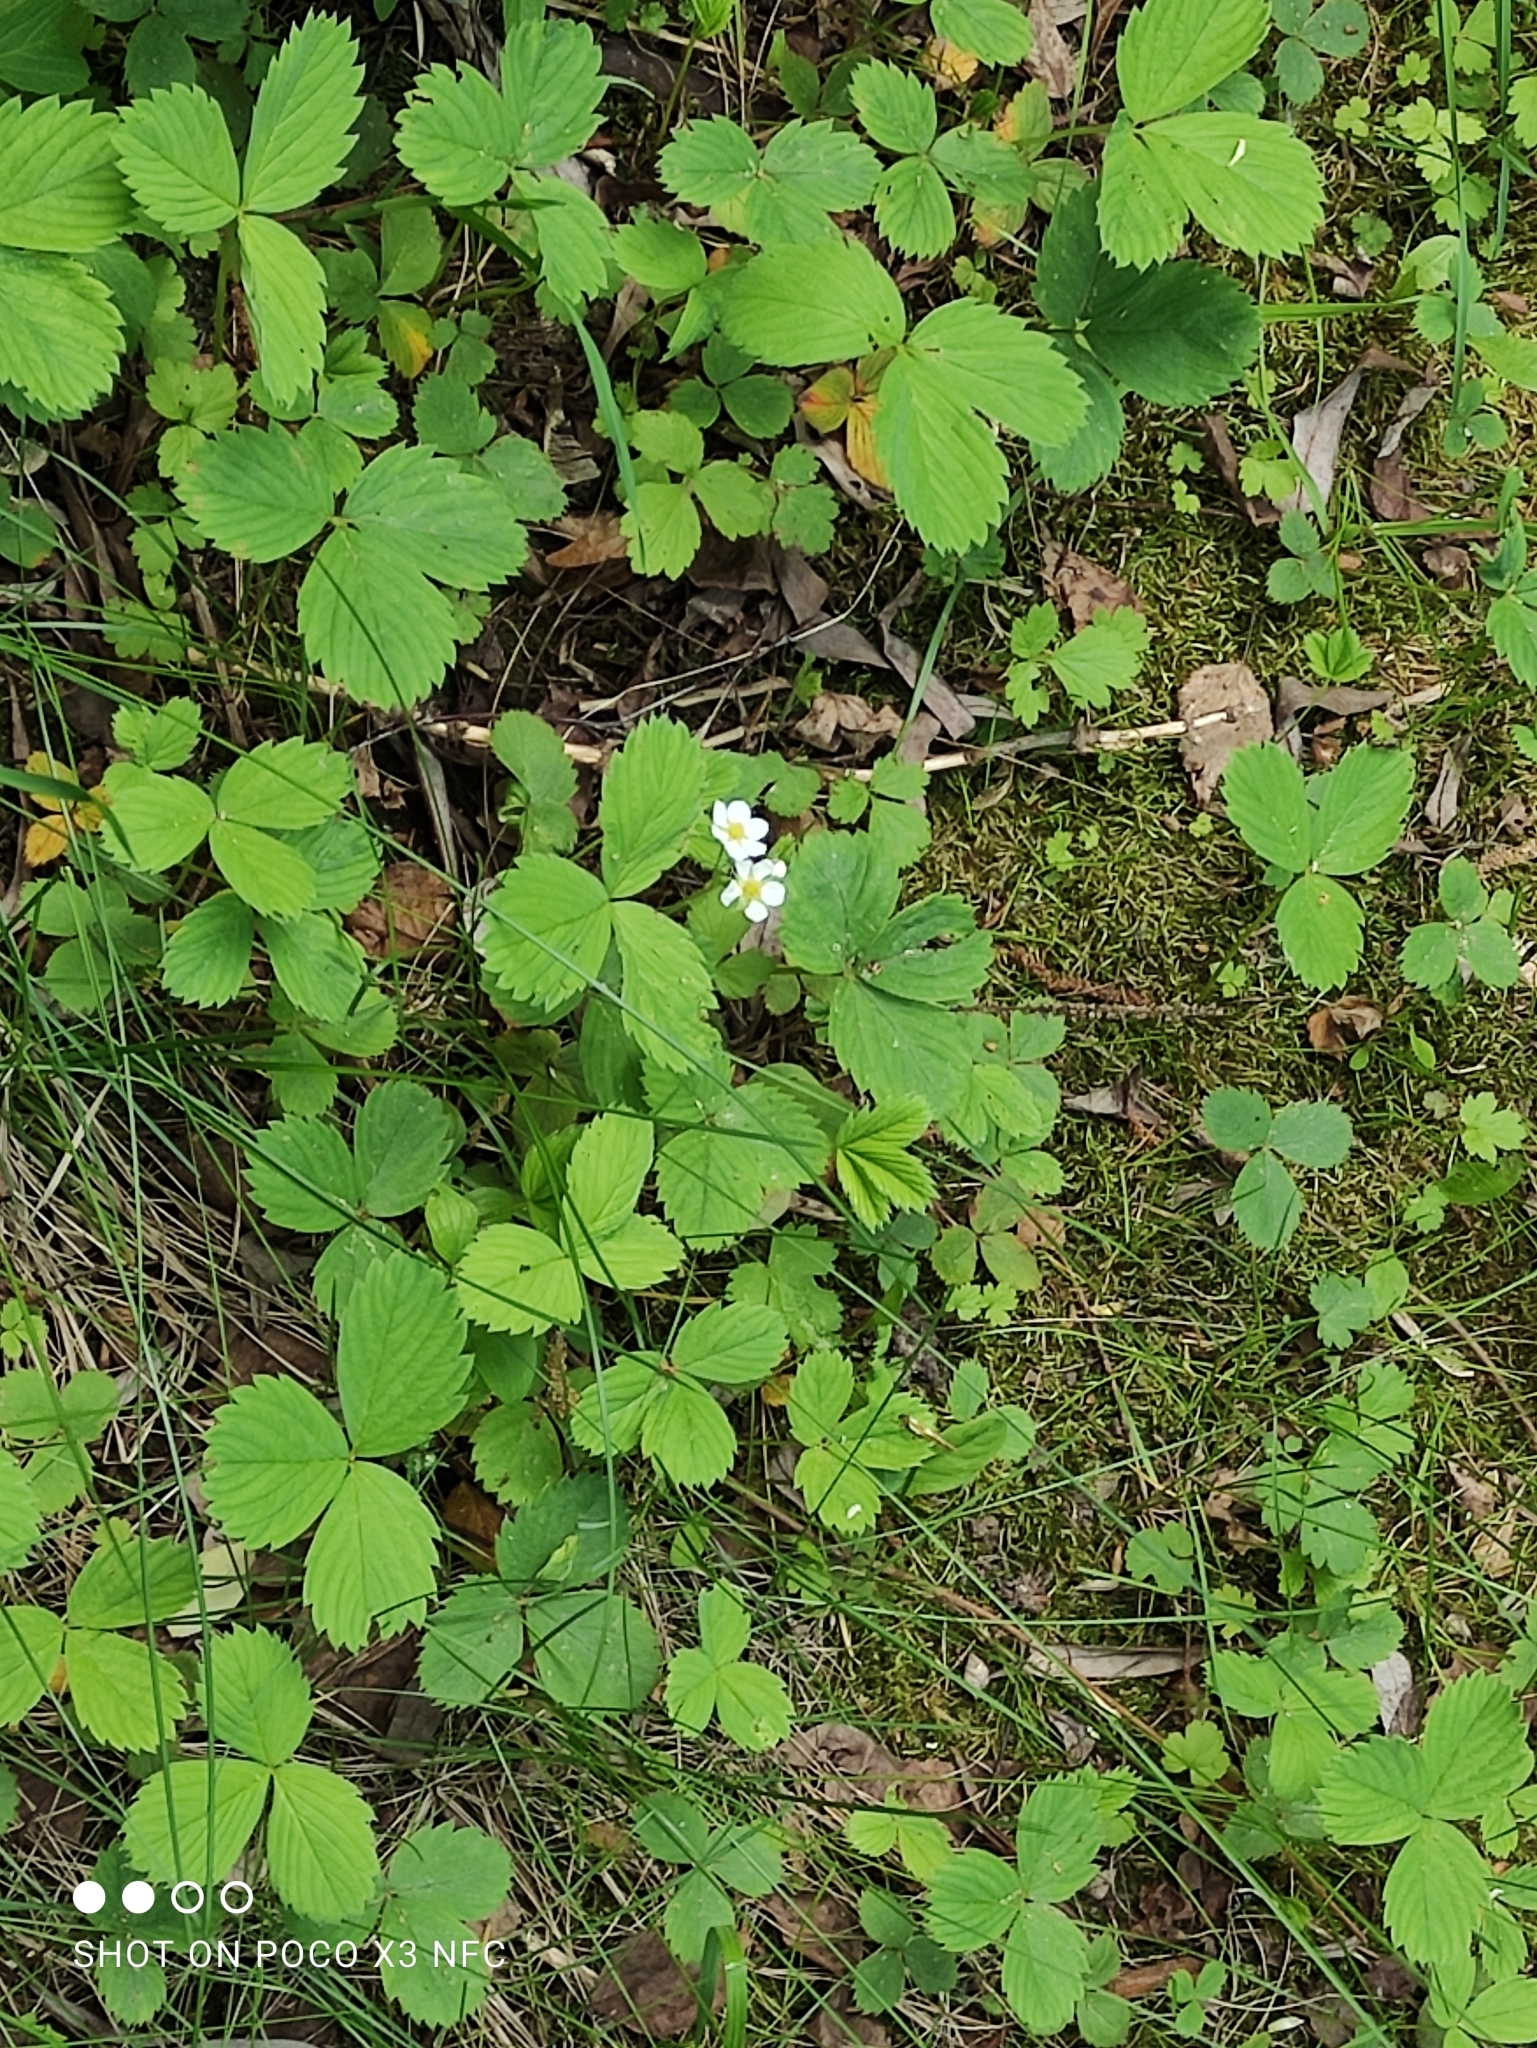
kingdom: Plantae
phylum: Tracheophyta
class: Magnoliopsida
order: Rosales
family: Rosaceae
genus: Fragaria
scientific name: Fragaria ananassa
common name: Garden strawberry
